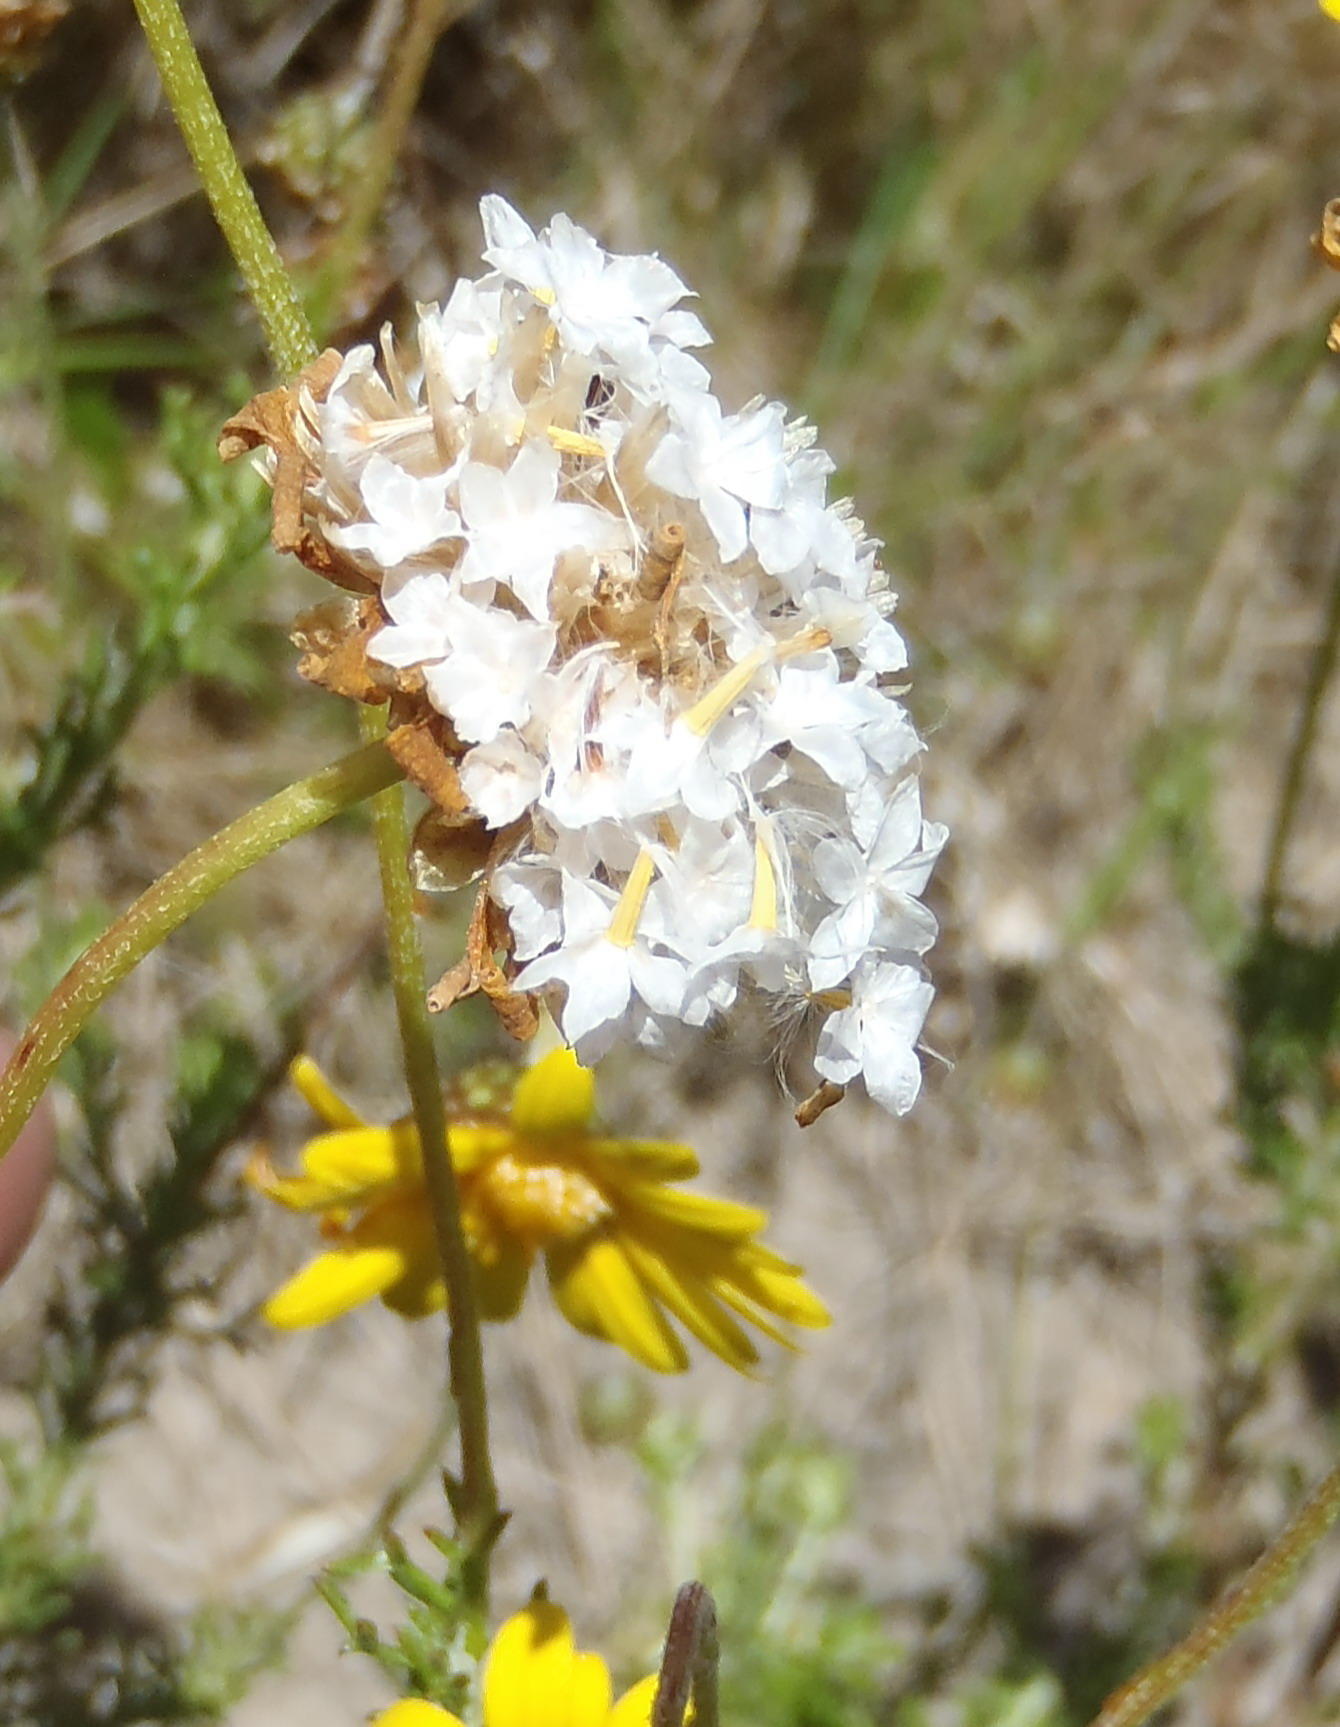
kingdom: Plantae
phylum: Tracheophyta
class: Magnoliopsida
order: Asterales
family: Asteraceae
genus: Ursinia
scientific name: Ursinia trifida
